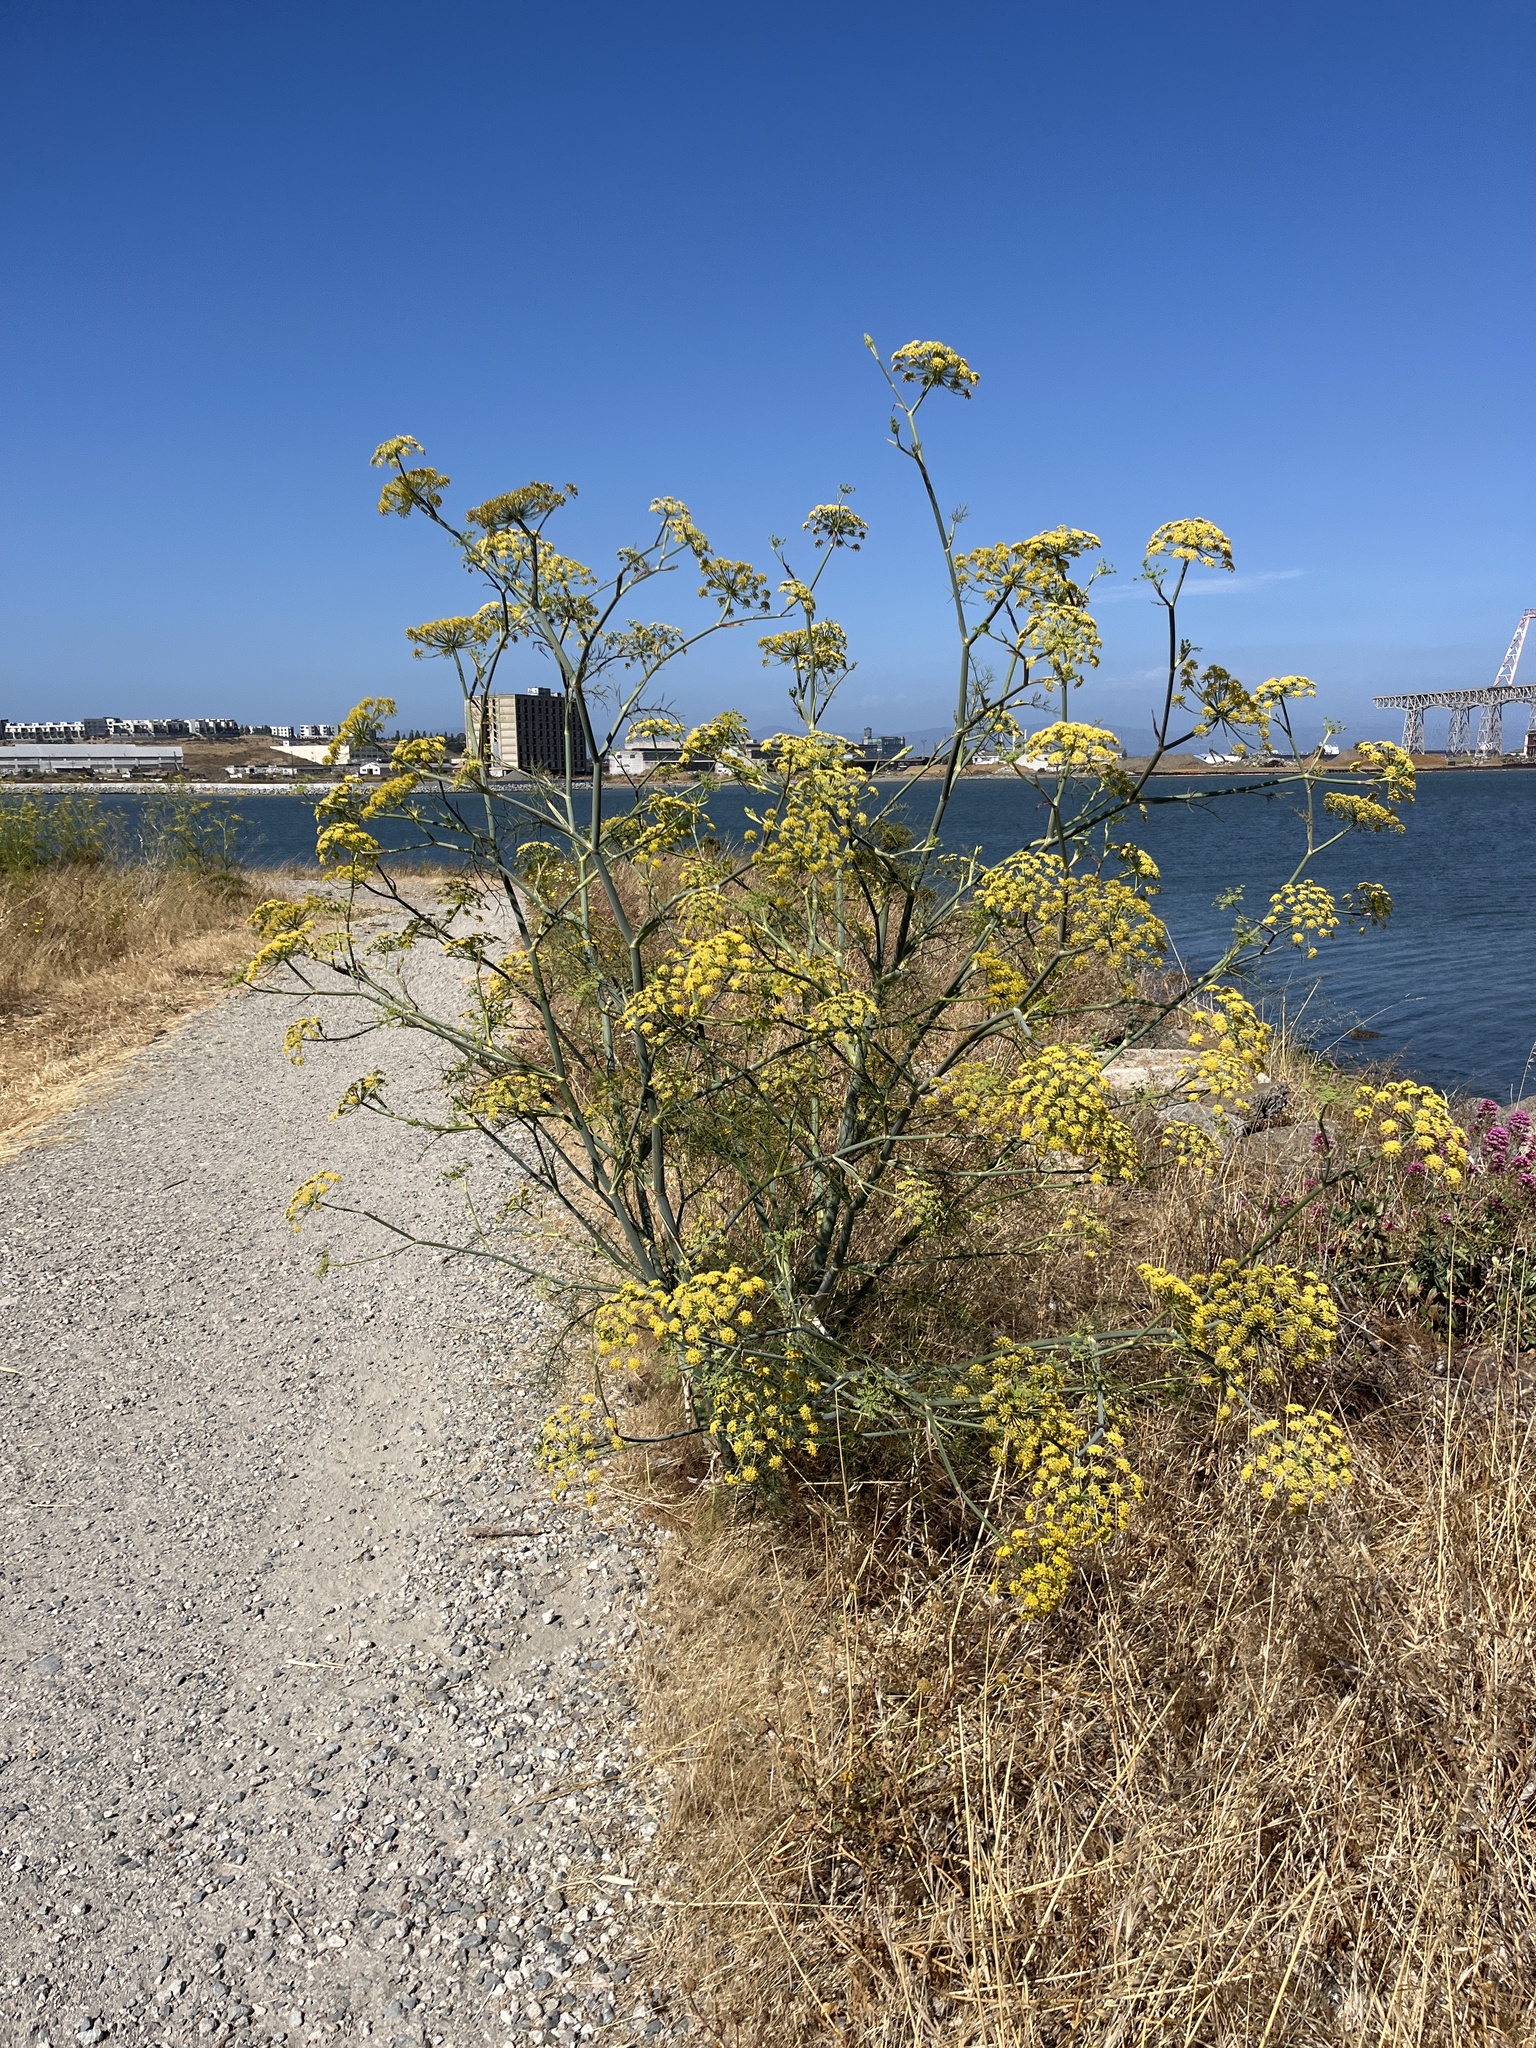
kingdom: Plantae
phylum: Tracheophyta
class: Magnoliopsida
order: Apiales
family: Apiaceae
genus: Foeniculum
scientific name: Foeniculum vulgare
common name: Fennel
